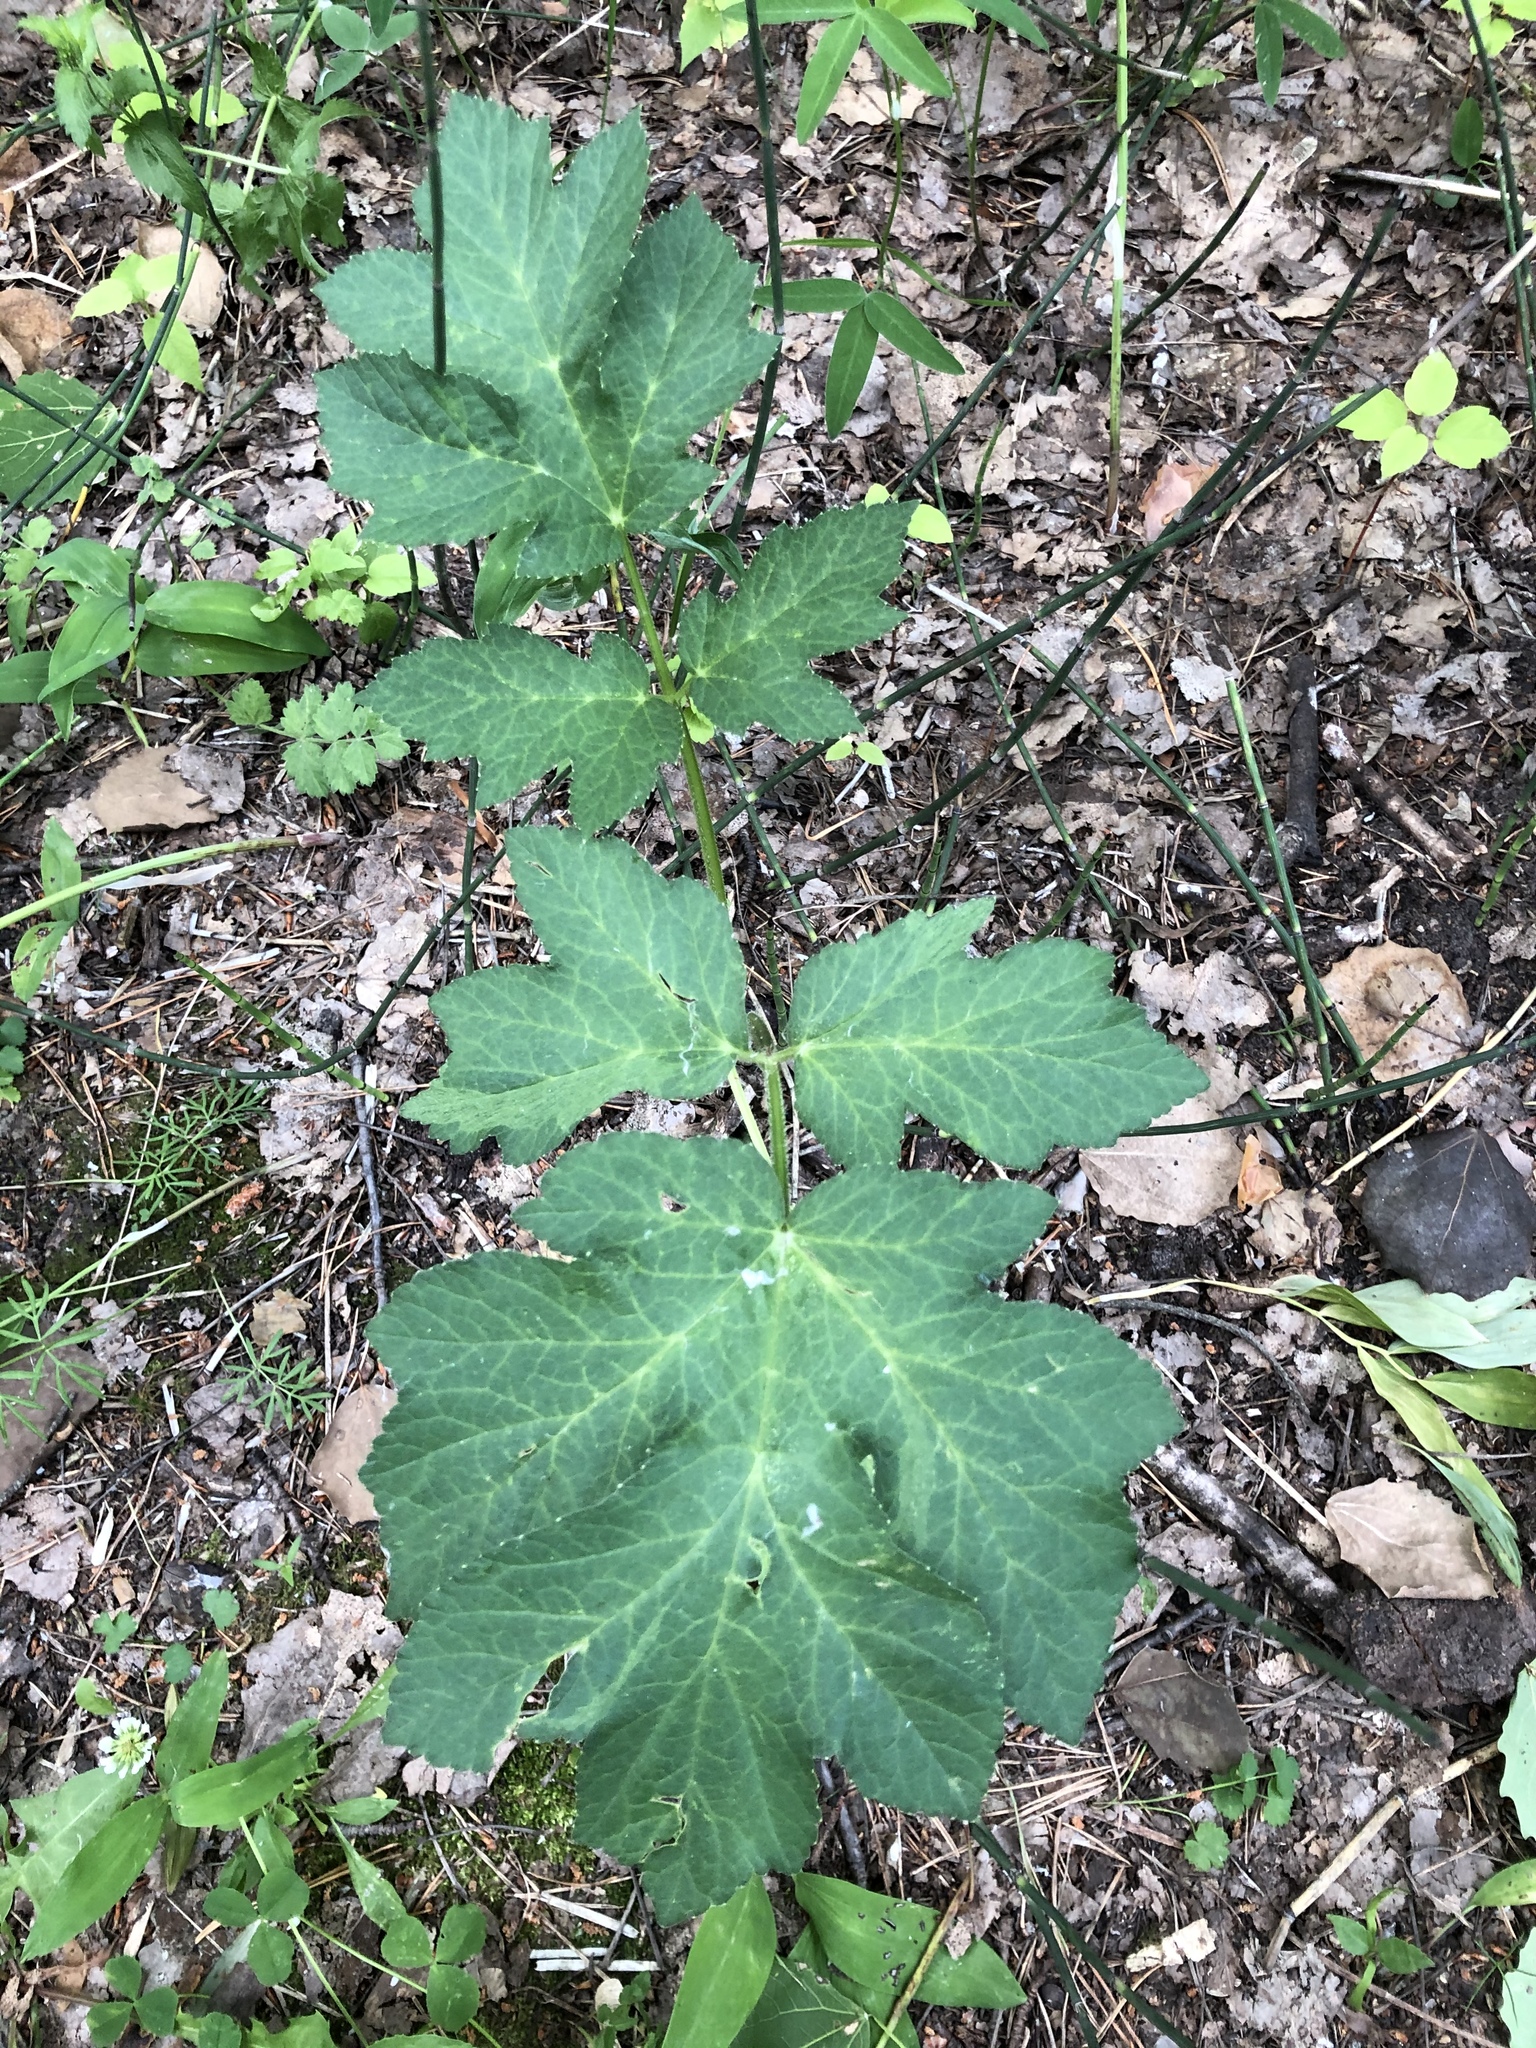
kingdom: Plantae
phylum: Tracheophyta
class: Magnoliopsida
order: Apiales
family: Apiaceae
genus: Heracleum
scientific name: Heracleum sphondylium
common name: Hogweed
